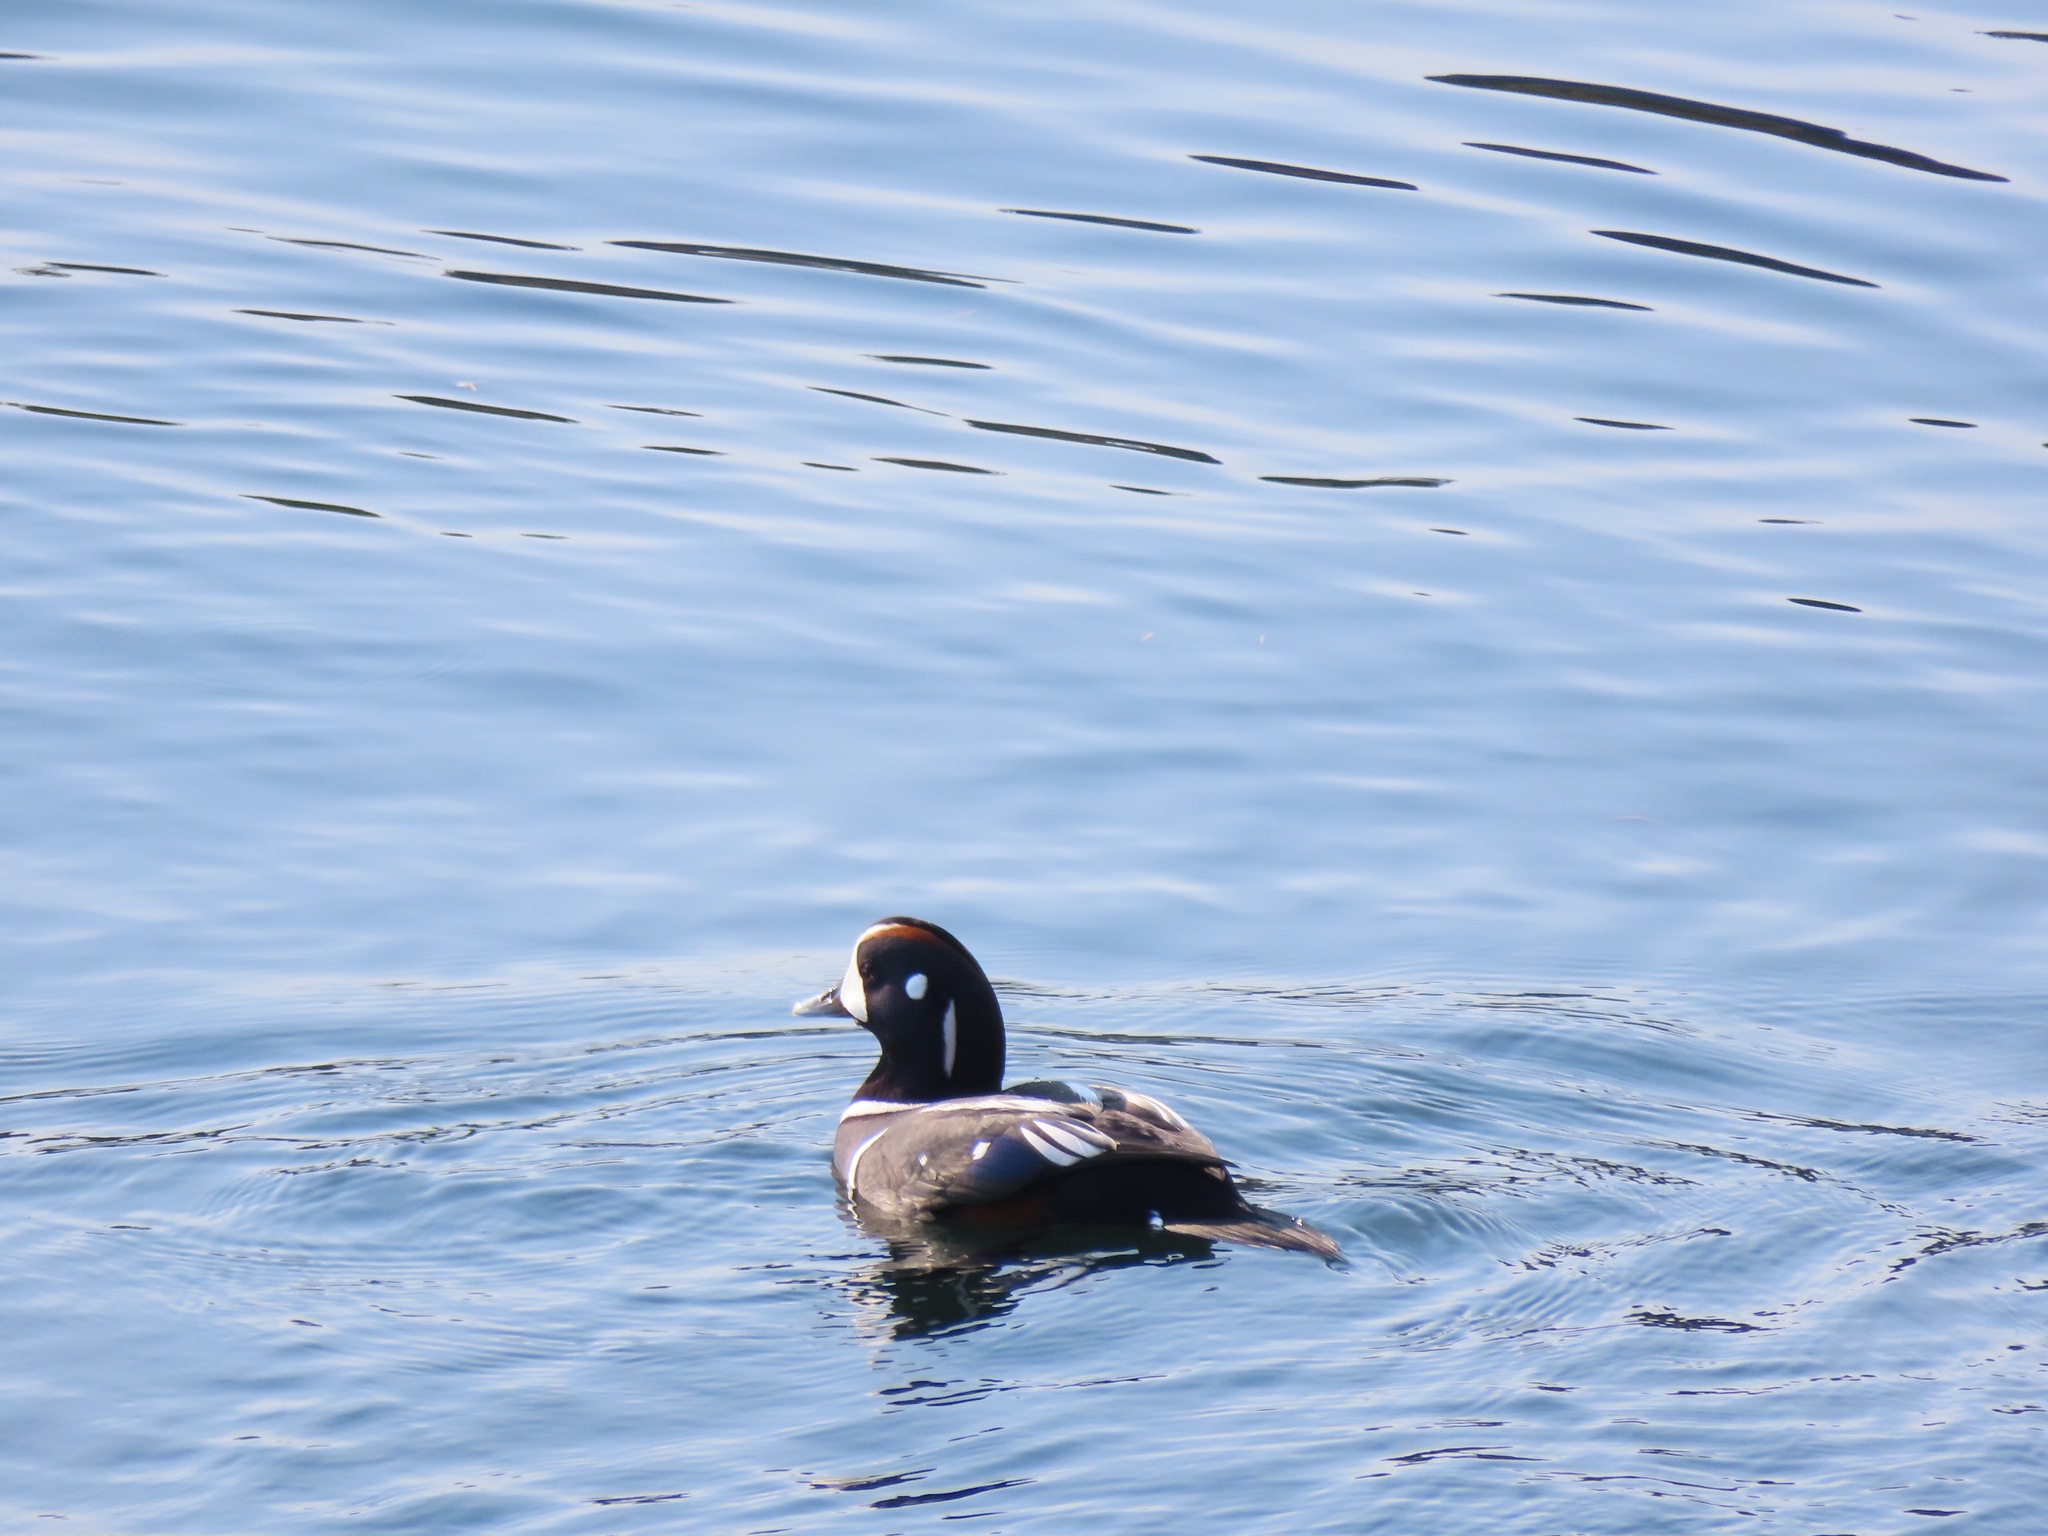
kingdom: Animalia
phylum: Chordata
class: Aves
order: Anseriformes
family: Anatidae
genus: Histrionicus
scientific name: Histrionicus histrionicus
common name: Harlequin duck
